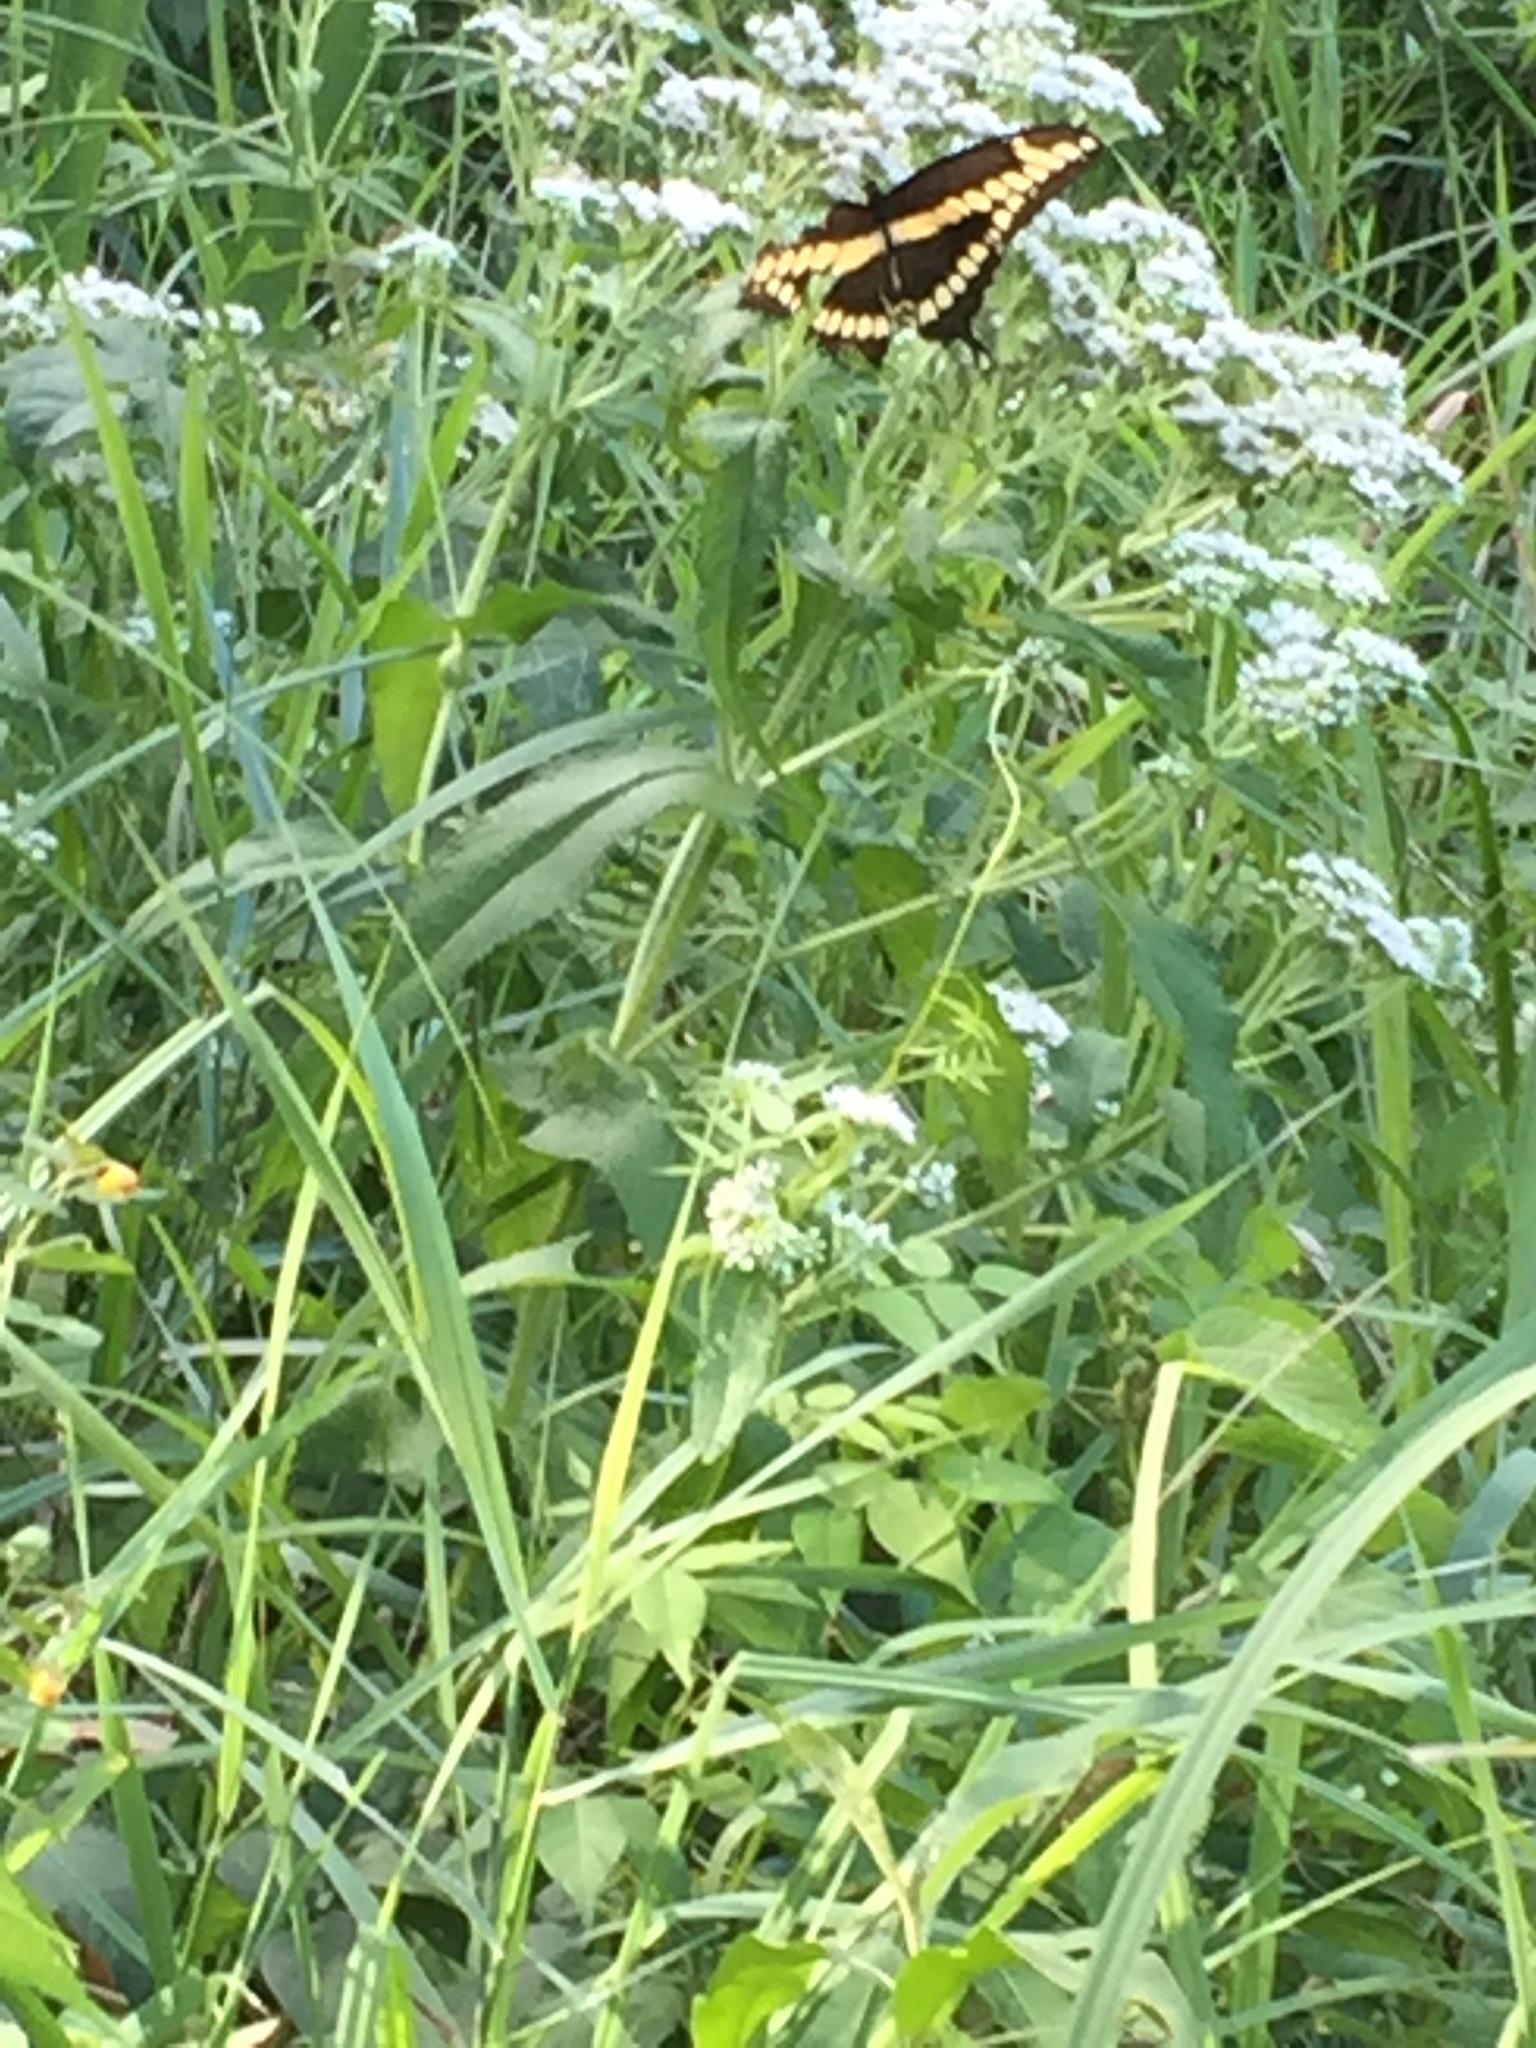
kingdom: Animalia
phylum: Arthropoda
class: Insecta
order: Lepidoptera
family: Papilionidae
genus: Papilio
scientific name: Papilio cresphontes
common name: Giant swallowtail
